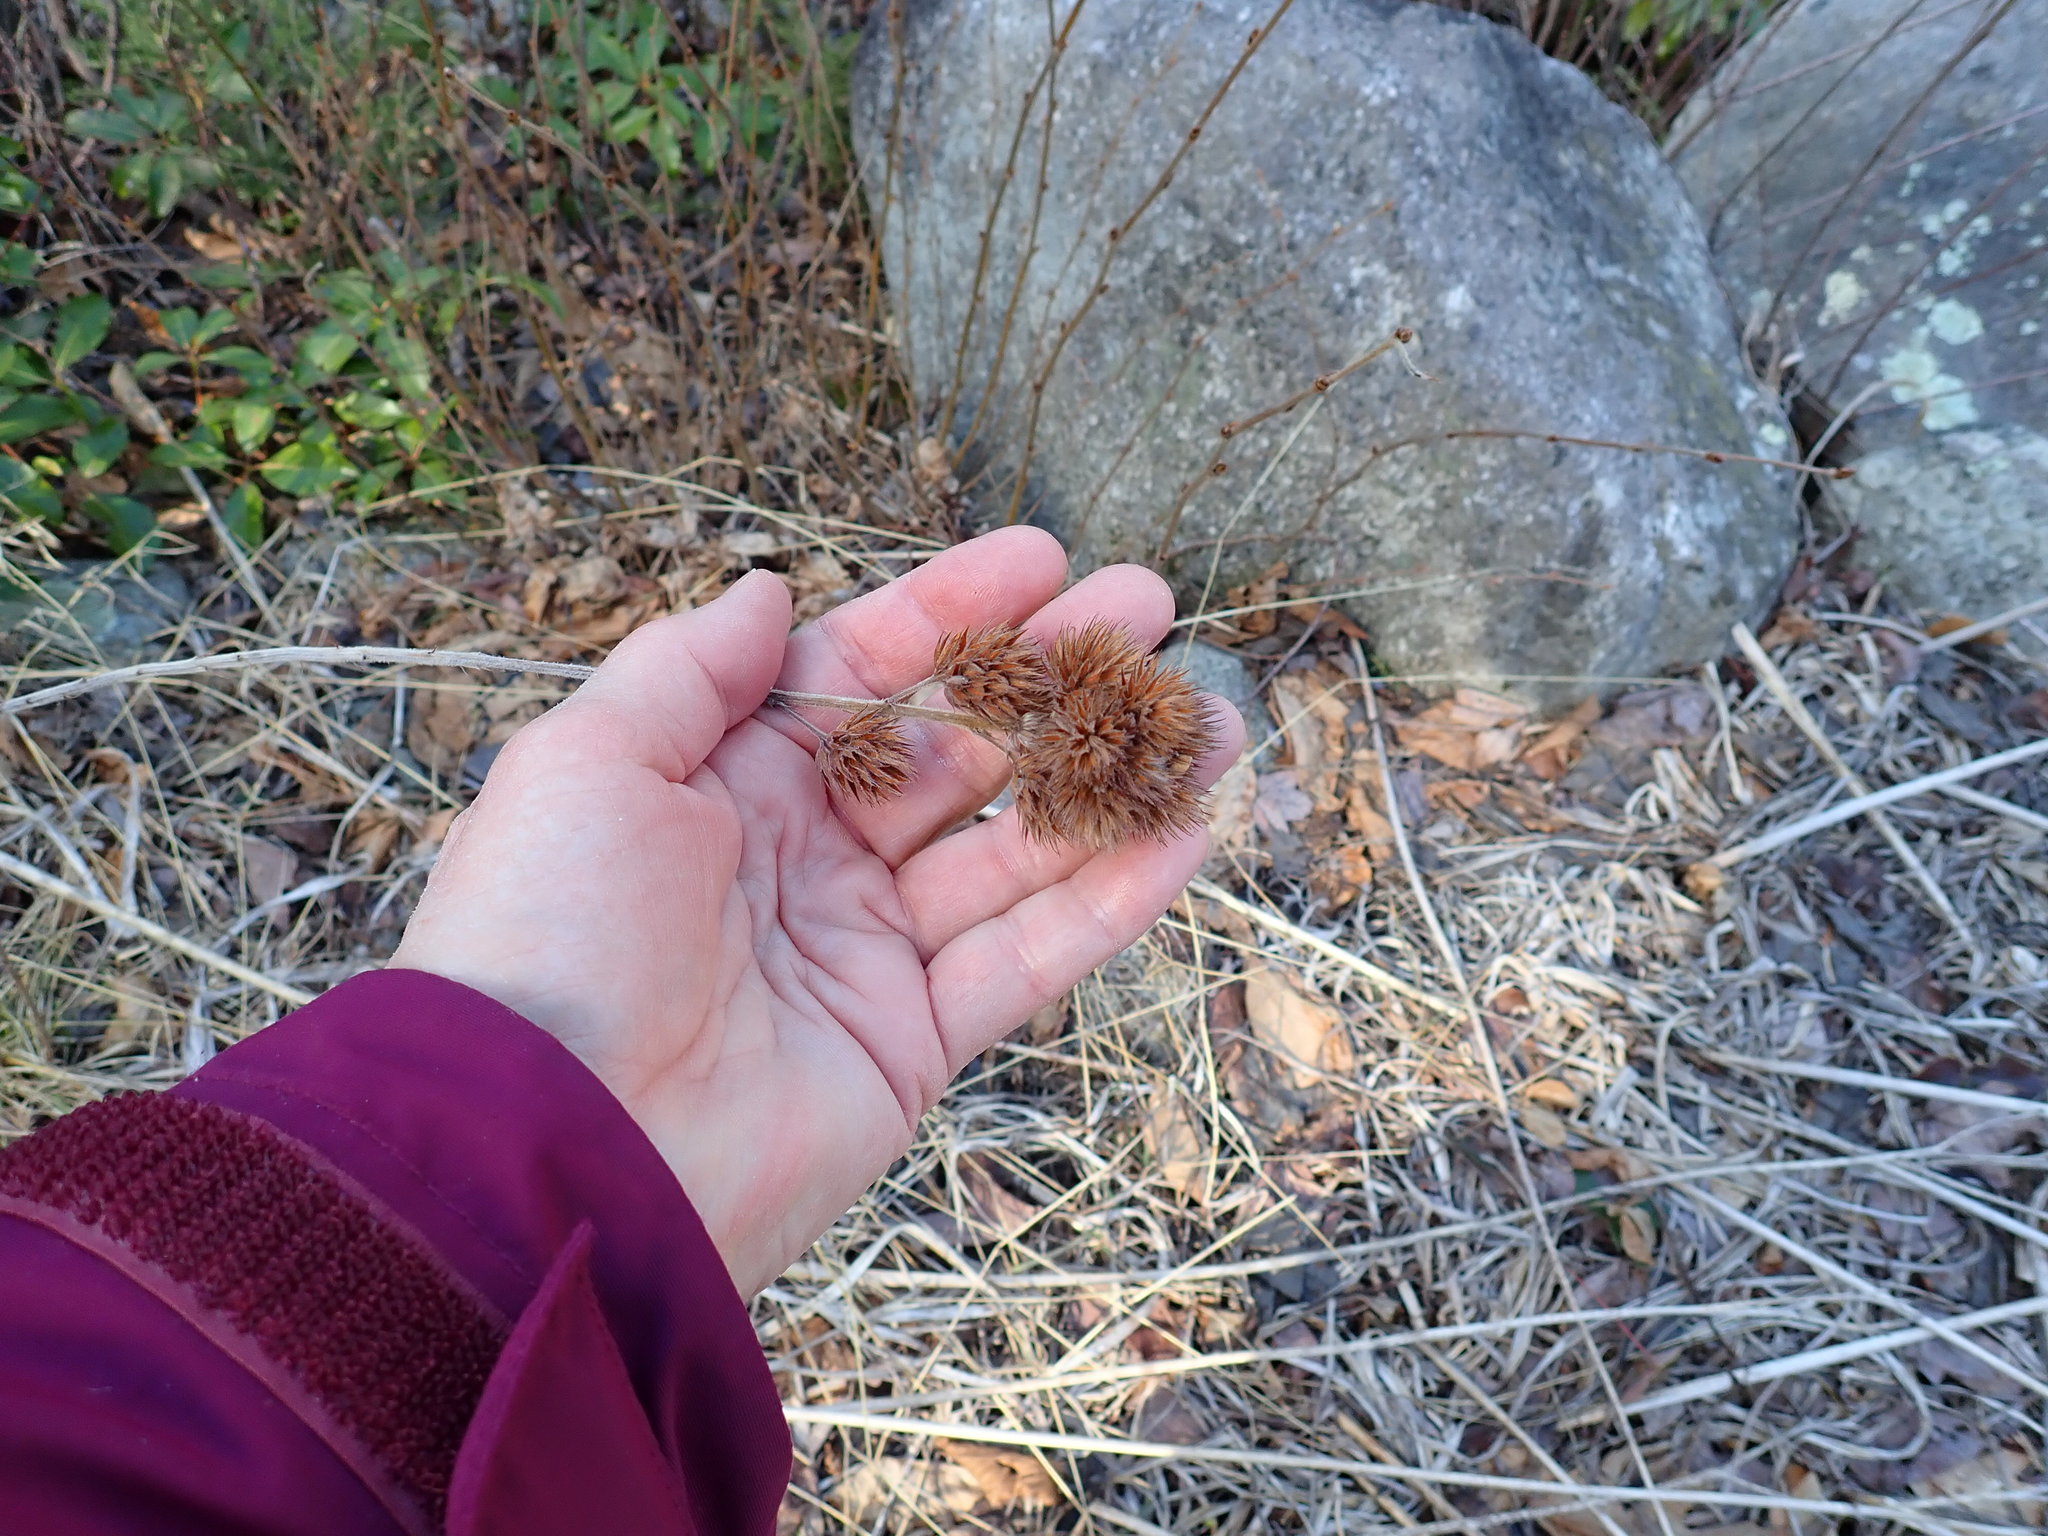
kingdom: Plantae
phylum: Tracheophyta
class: Magnoliopsida
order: Fabales
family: Fabaceae
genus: Lespedeza
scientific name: Lespedeza capitata
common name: Dusty clover
